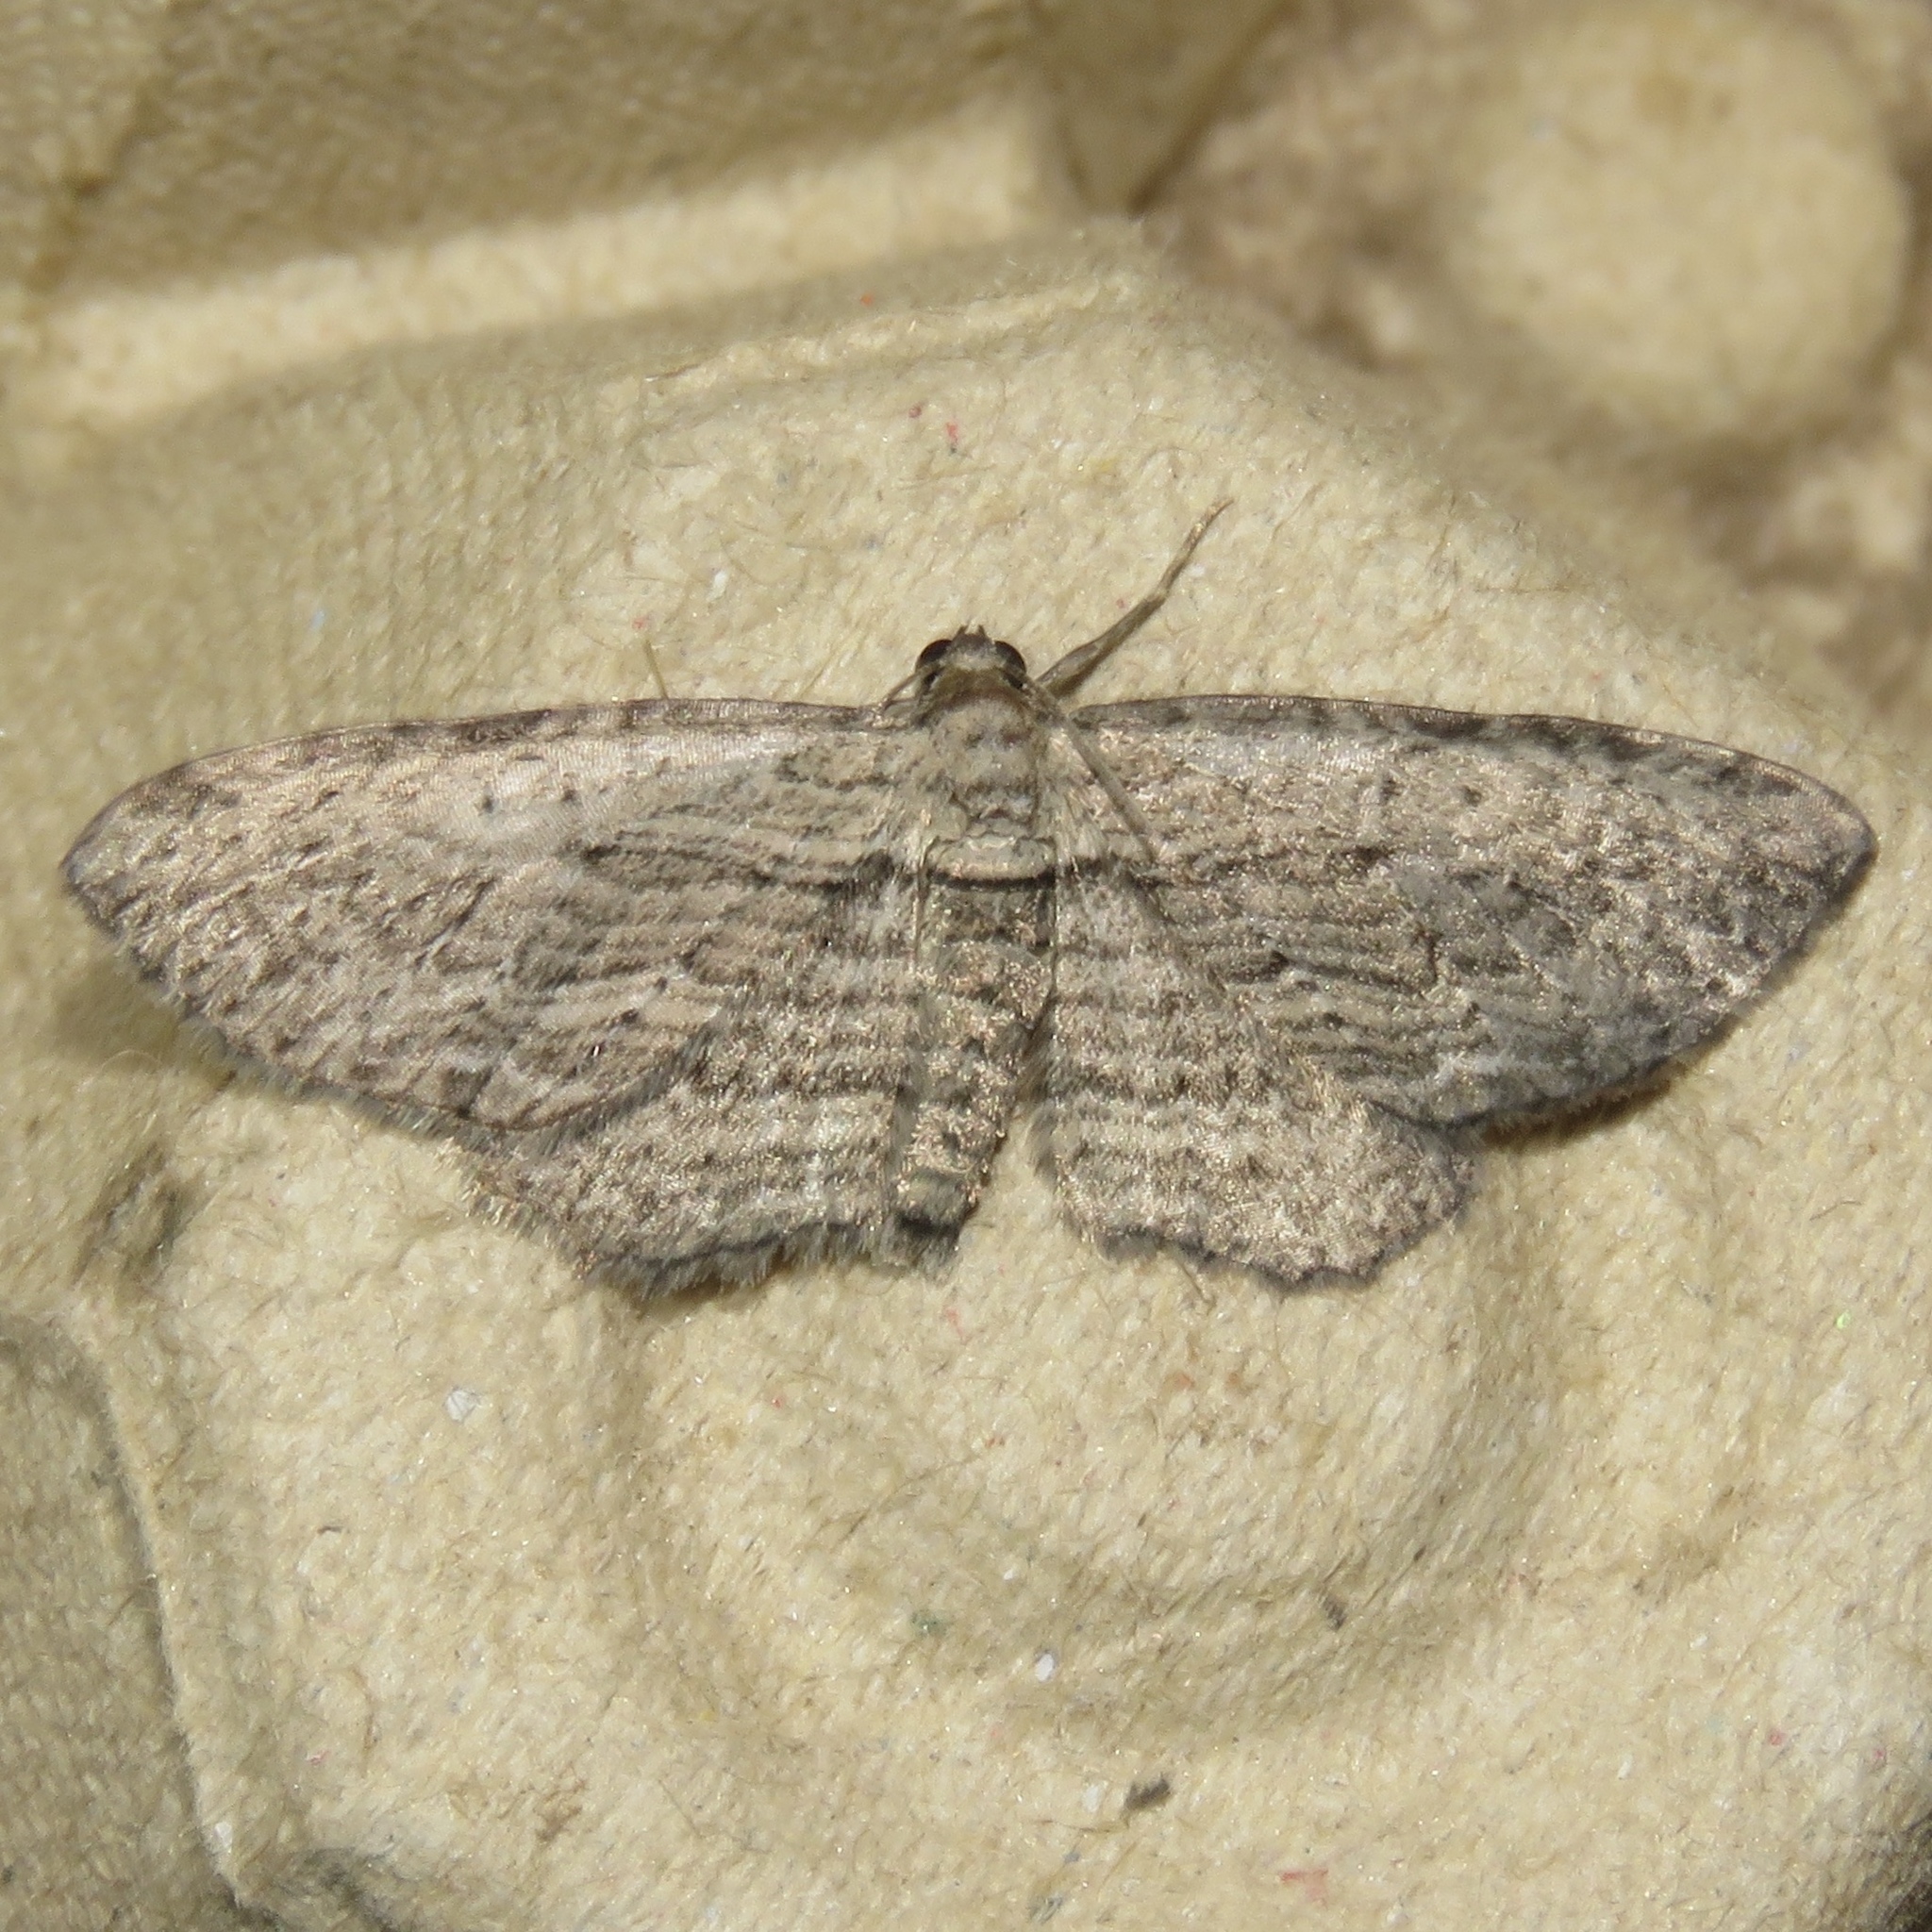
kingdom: Animalia
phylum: Arthropoda
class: Insecta
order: Lepidoptera
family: Geometridae
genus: Horisme
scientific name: Horisme intestinata
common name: Brown bark carpet
